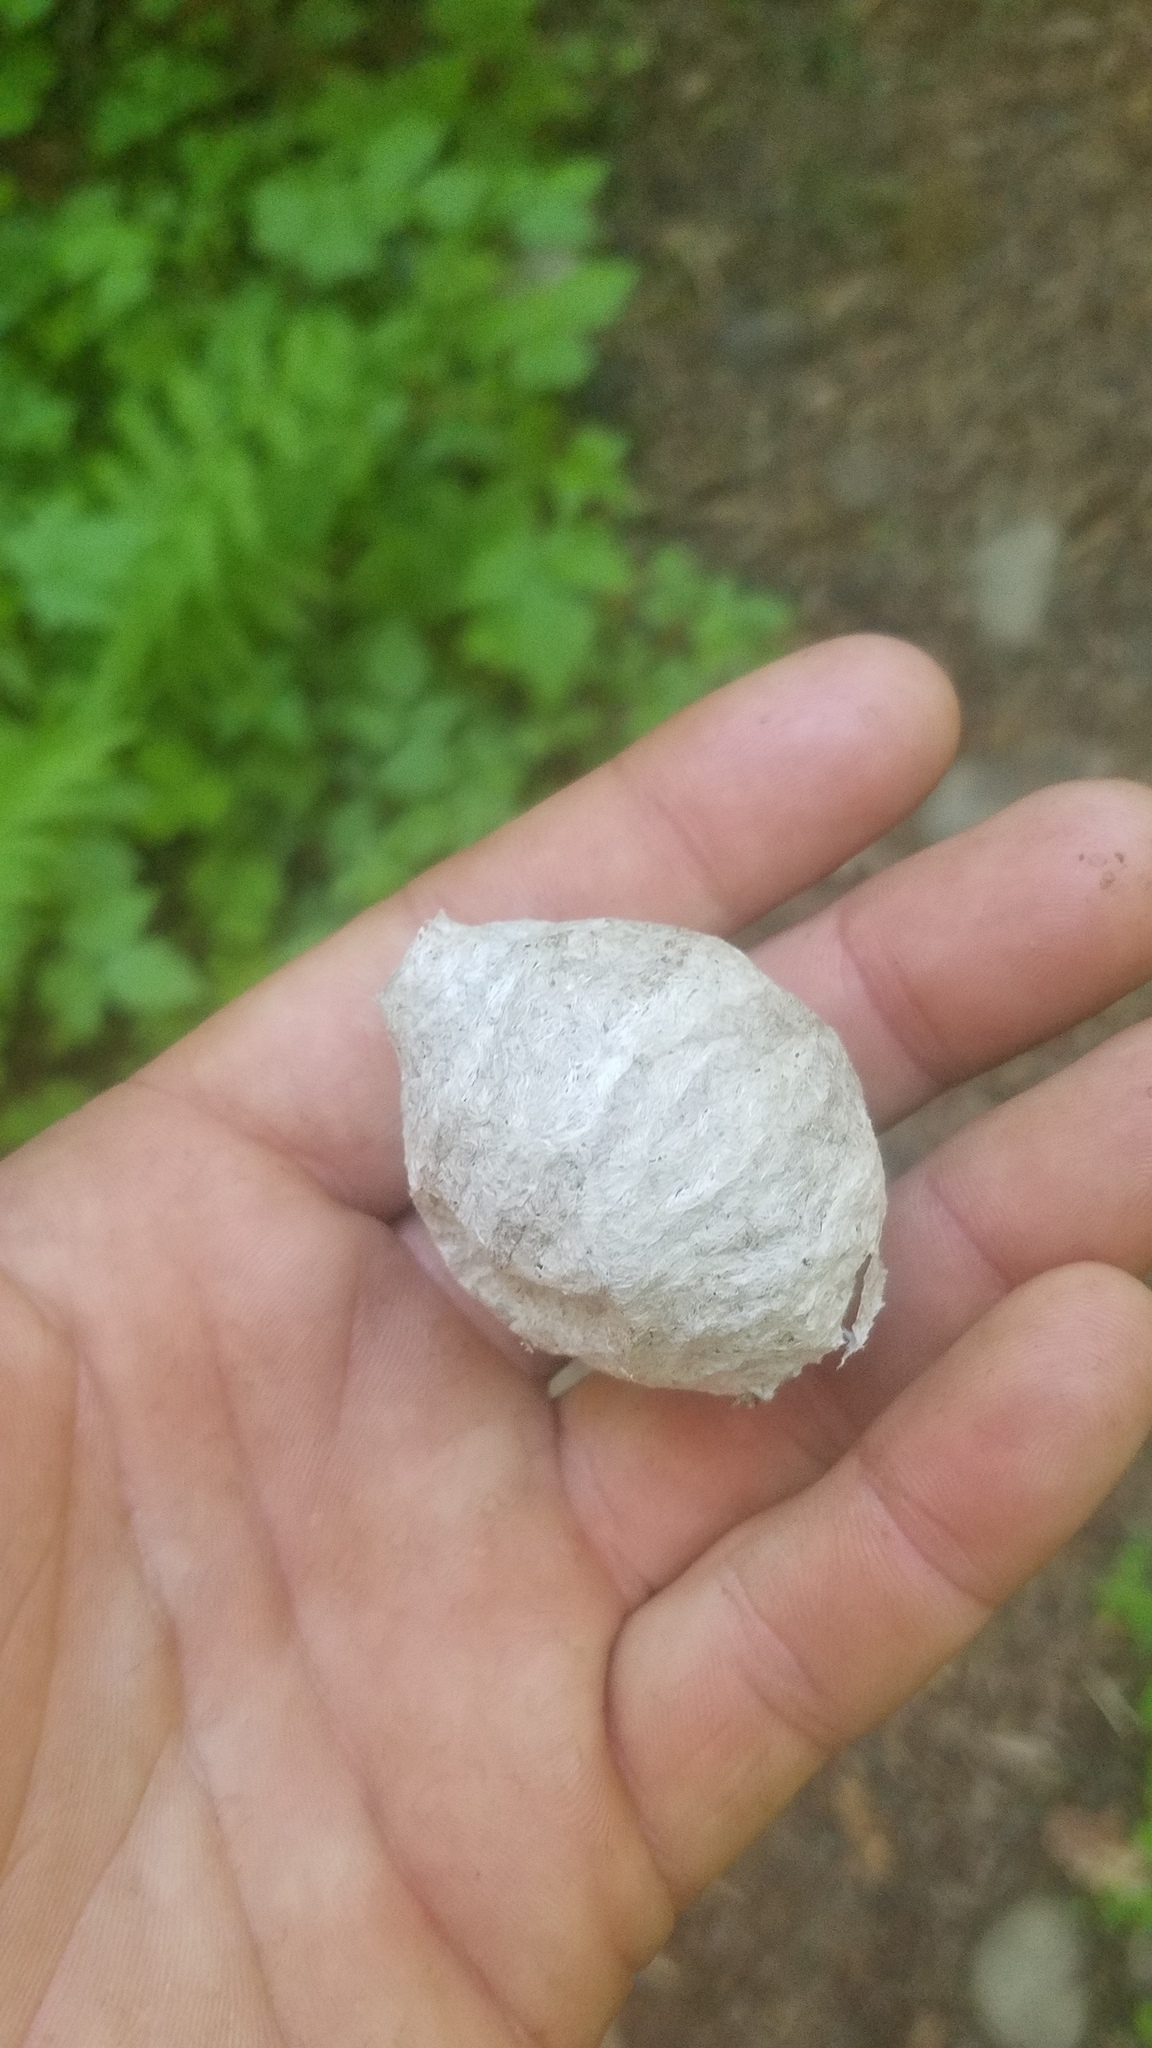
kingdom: Animalia
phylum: Arthropoda
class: Insecta
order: Hymenoptera
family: Vespidae
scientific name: Vespidae
